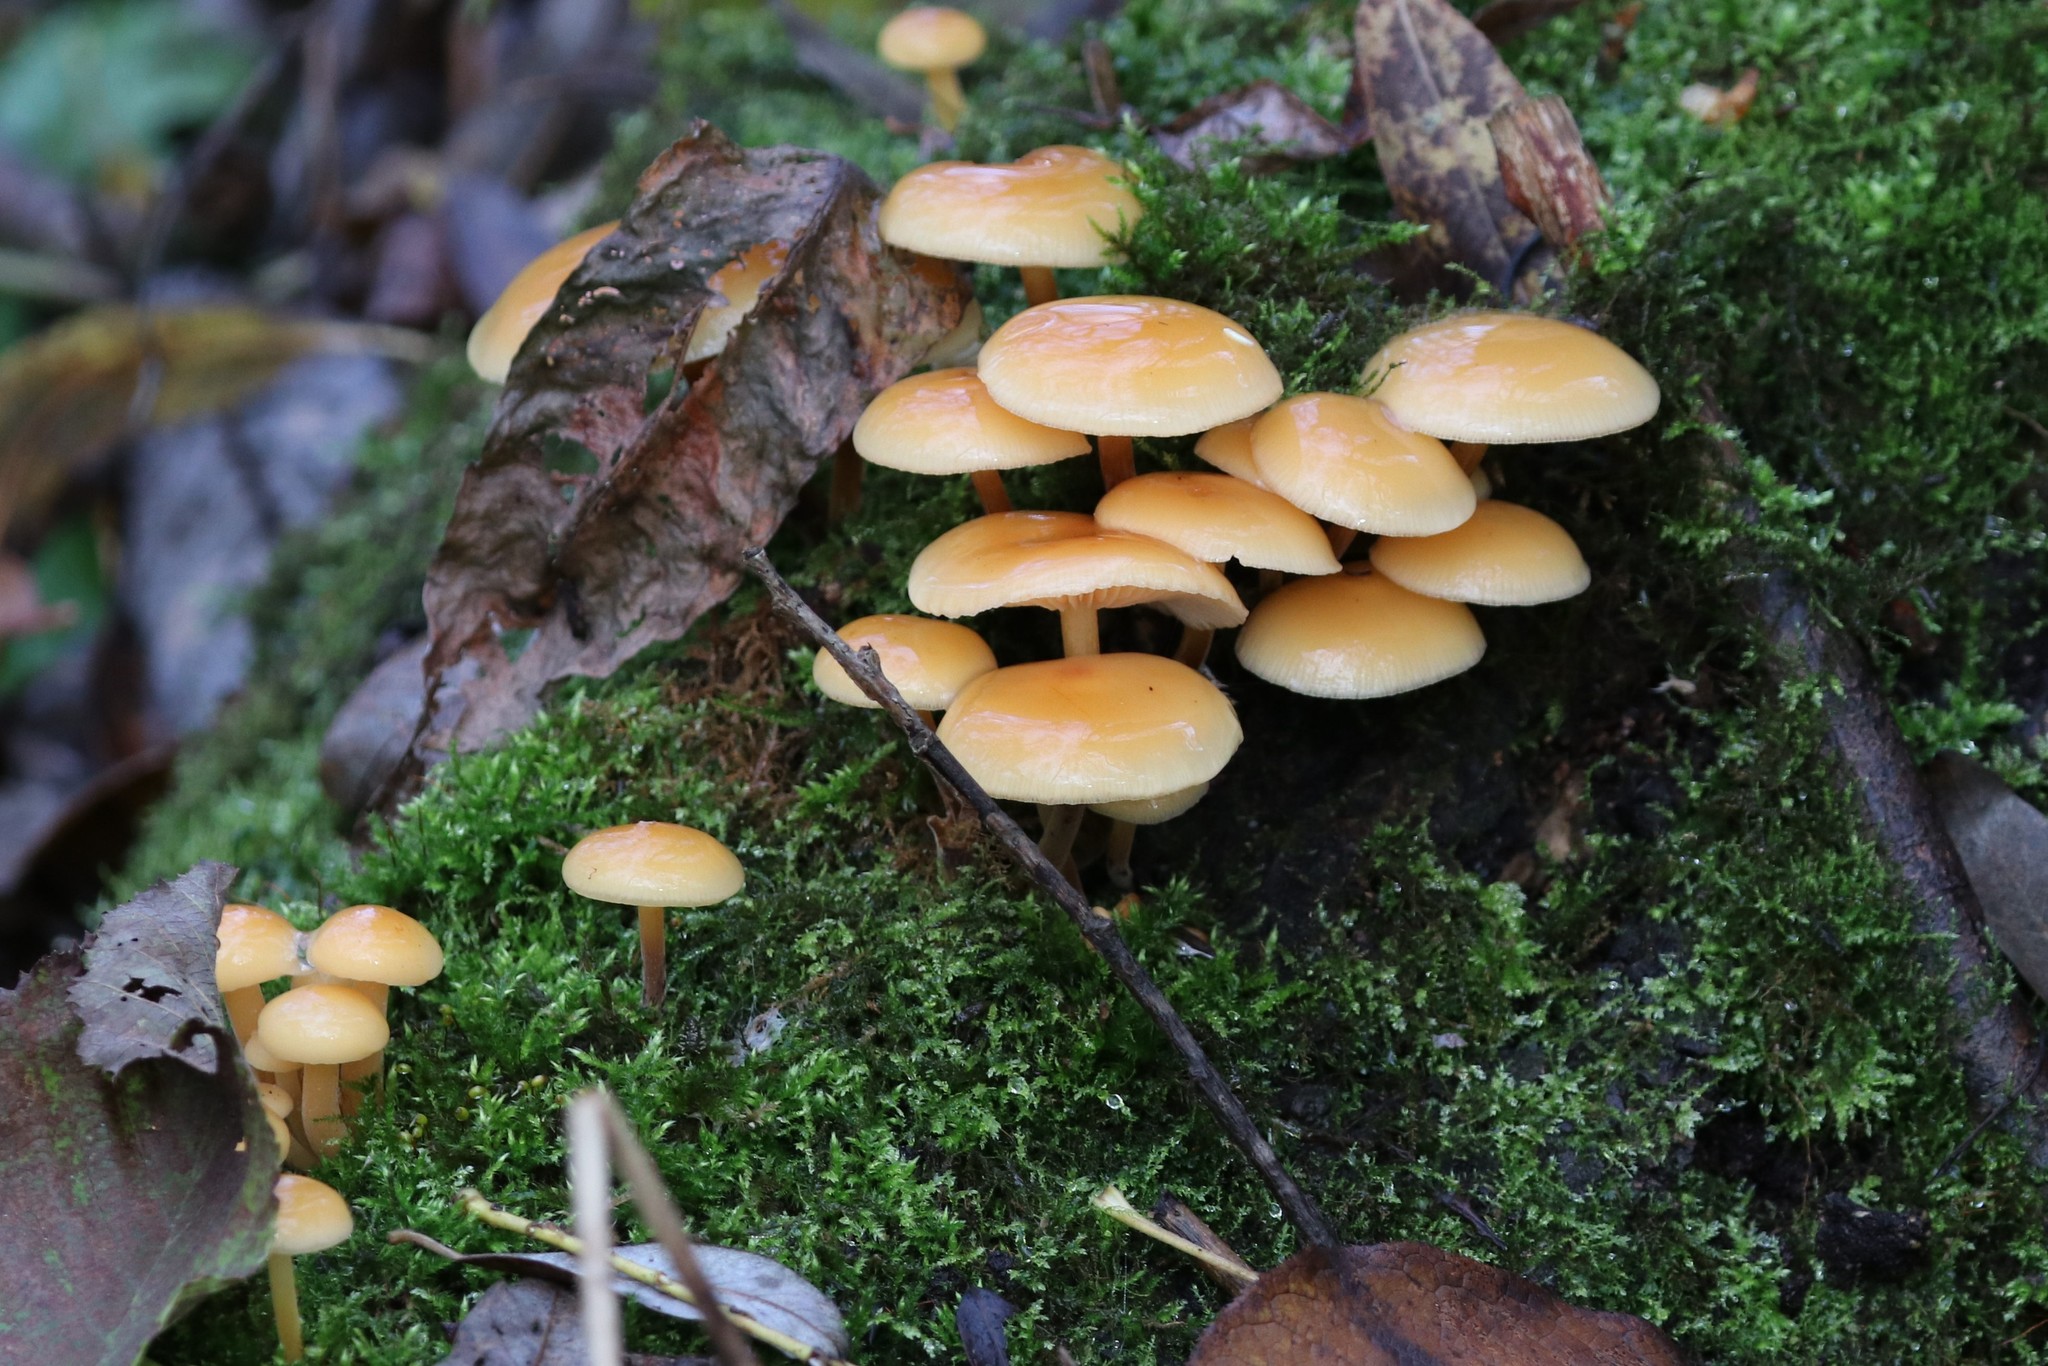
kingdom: Fungi
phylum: Basidiomycota
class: Agaricomycetes
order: Agaricales
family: Physalacriaceae
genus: Flammulina
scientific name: Flammulina
